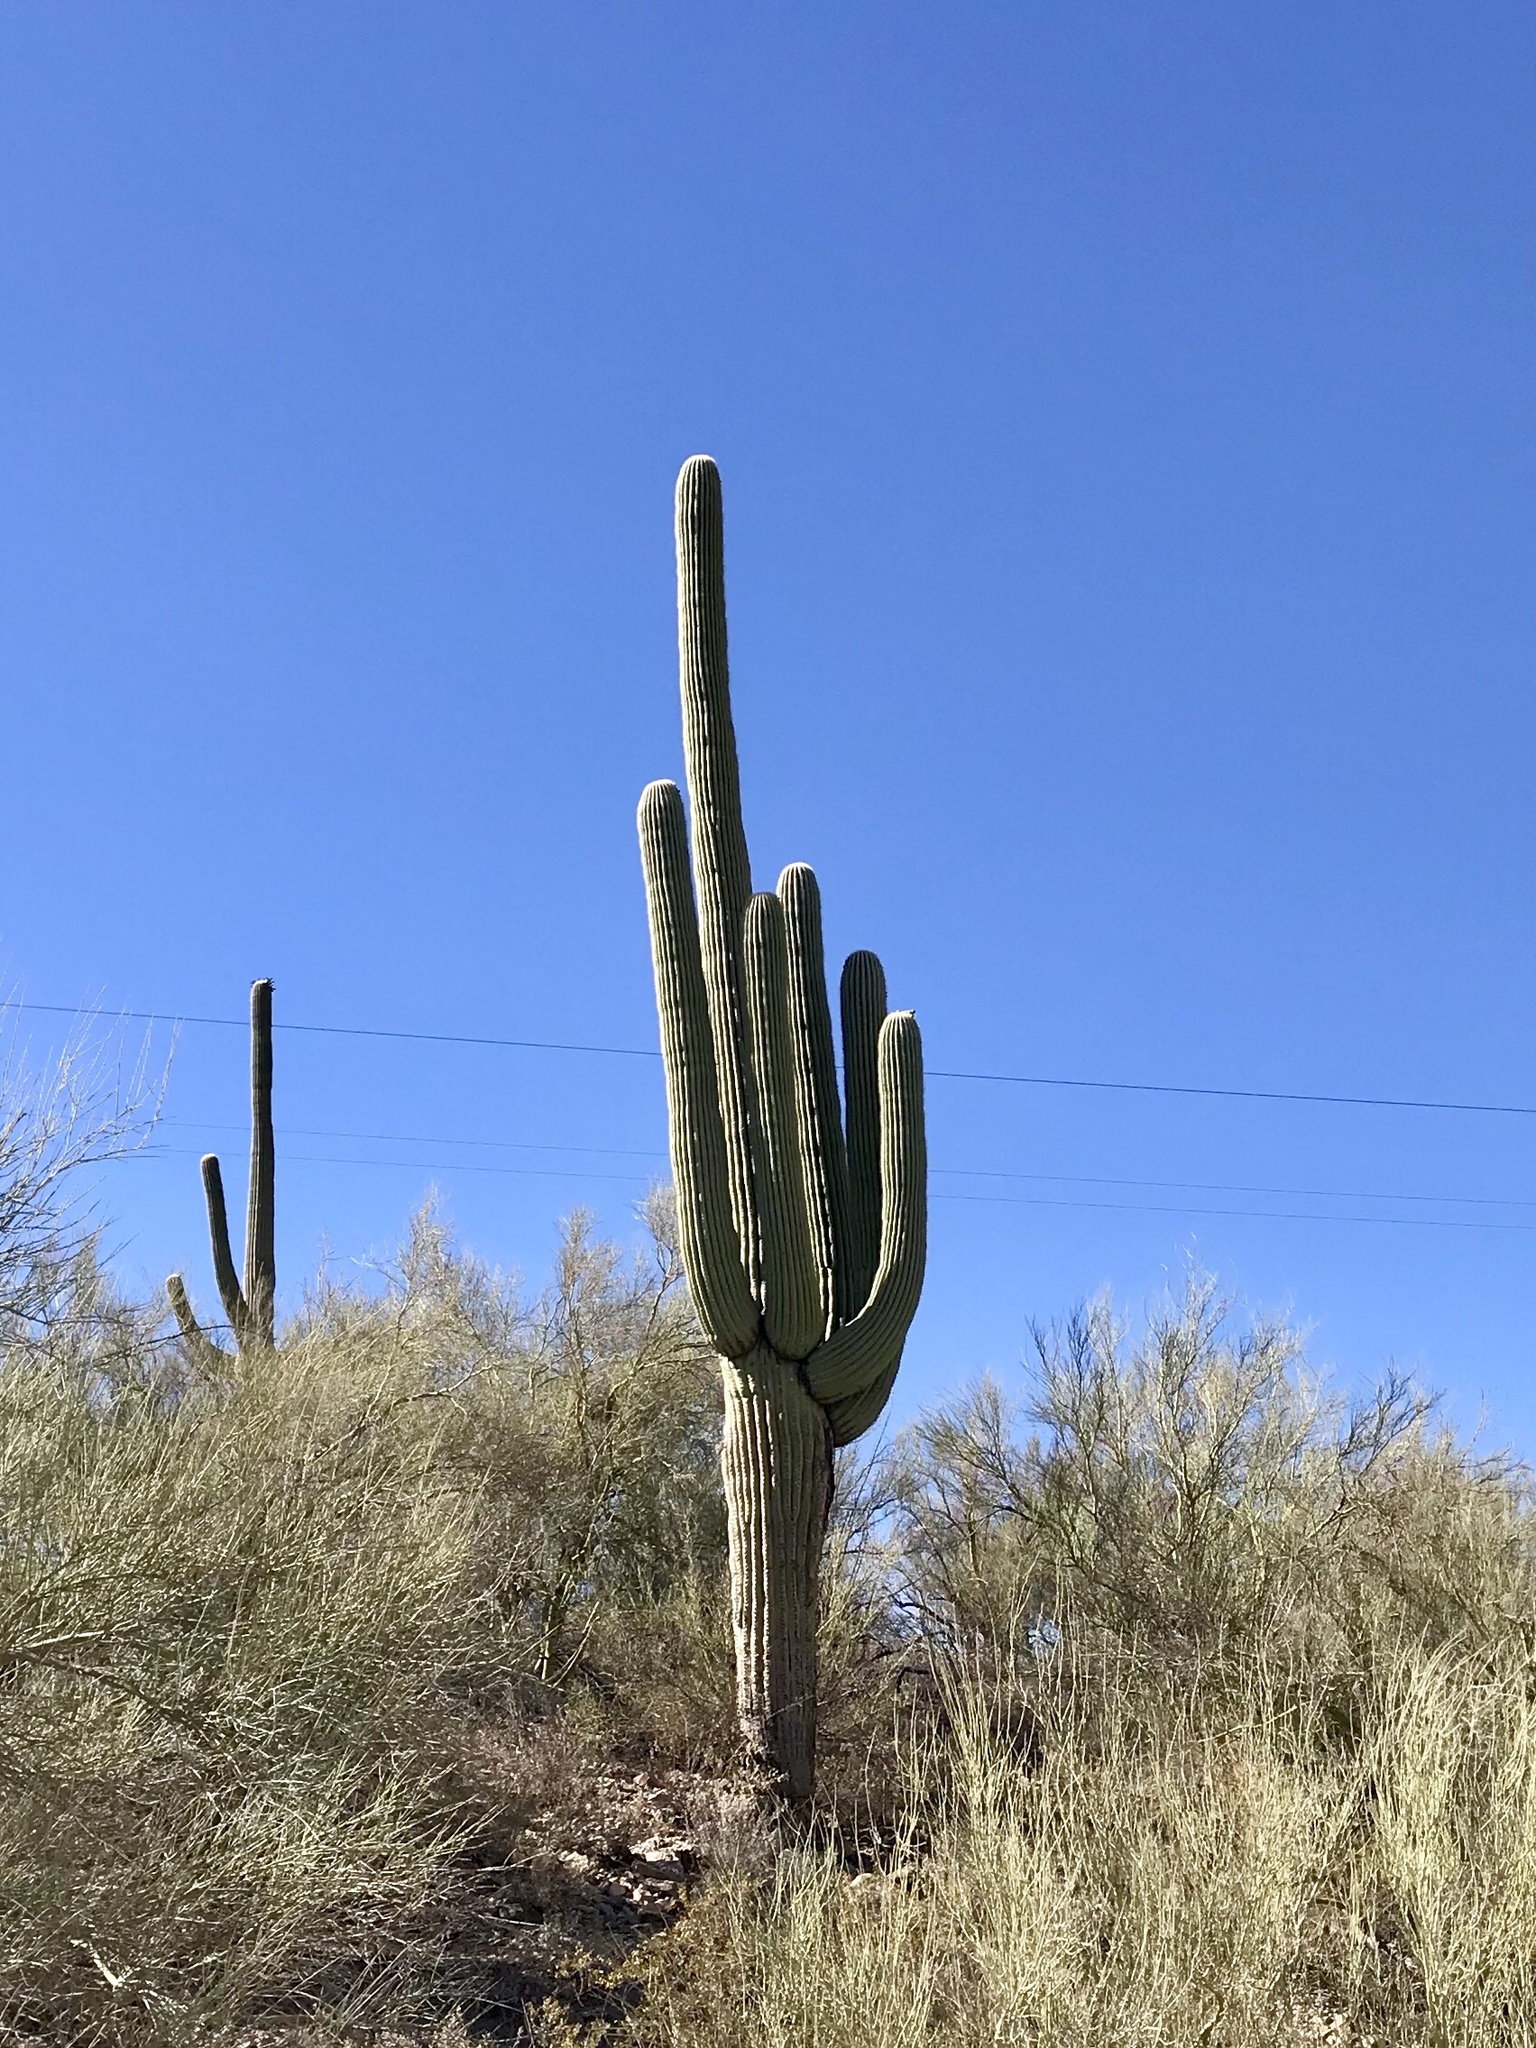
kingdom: Plantae
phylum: Tracheophyta
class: Magnoliopsida
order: Caryophyllales
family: Cactaceae
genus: Carnegiea
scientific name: Carnegiea gigantea
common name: Saguaro
